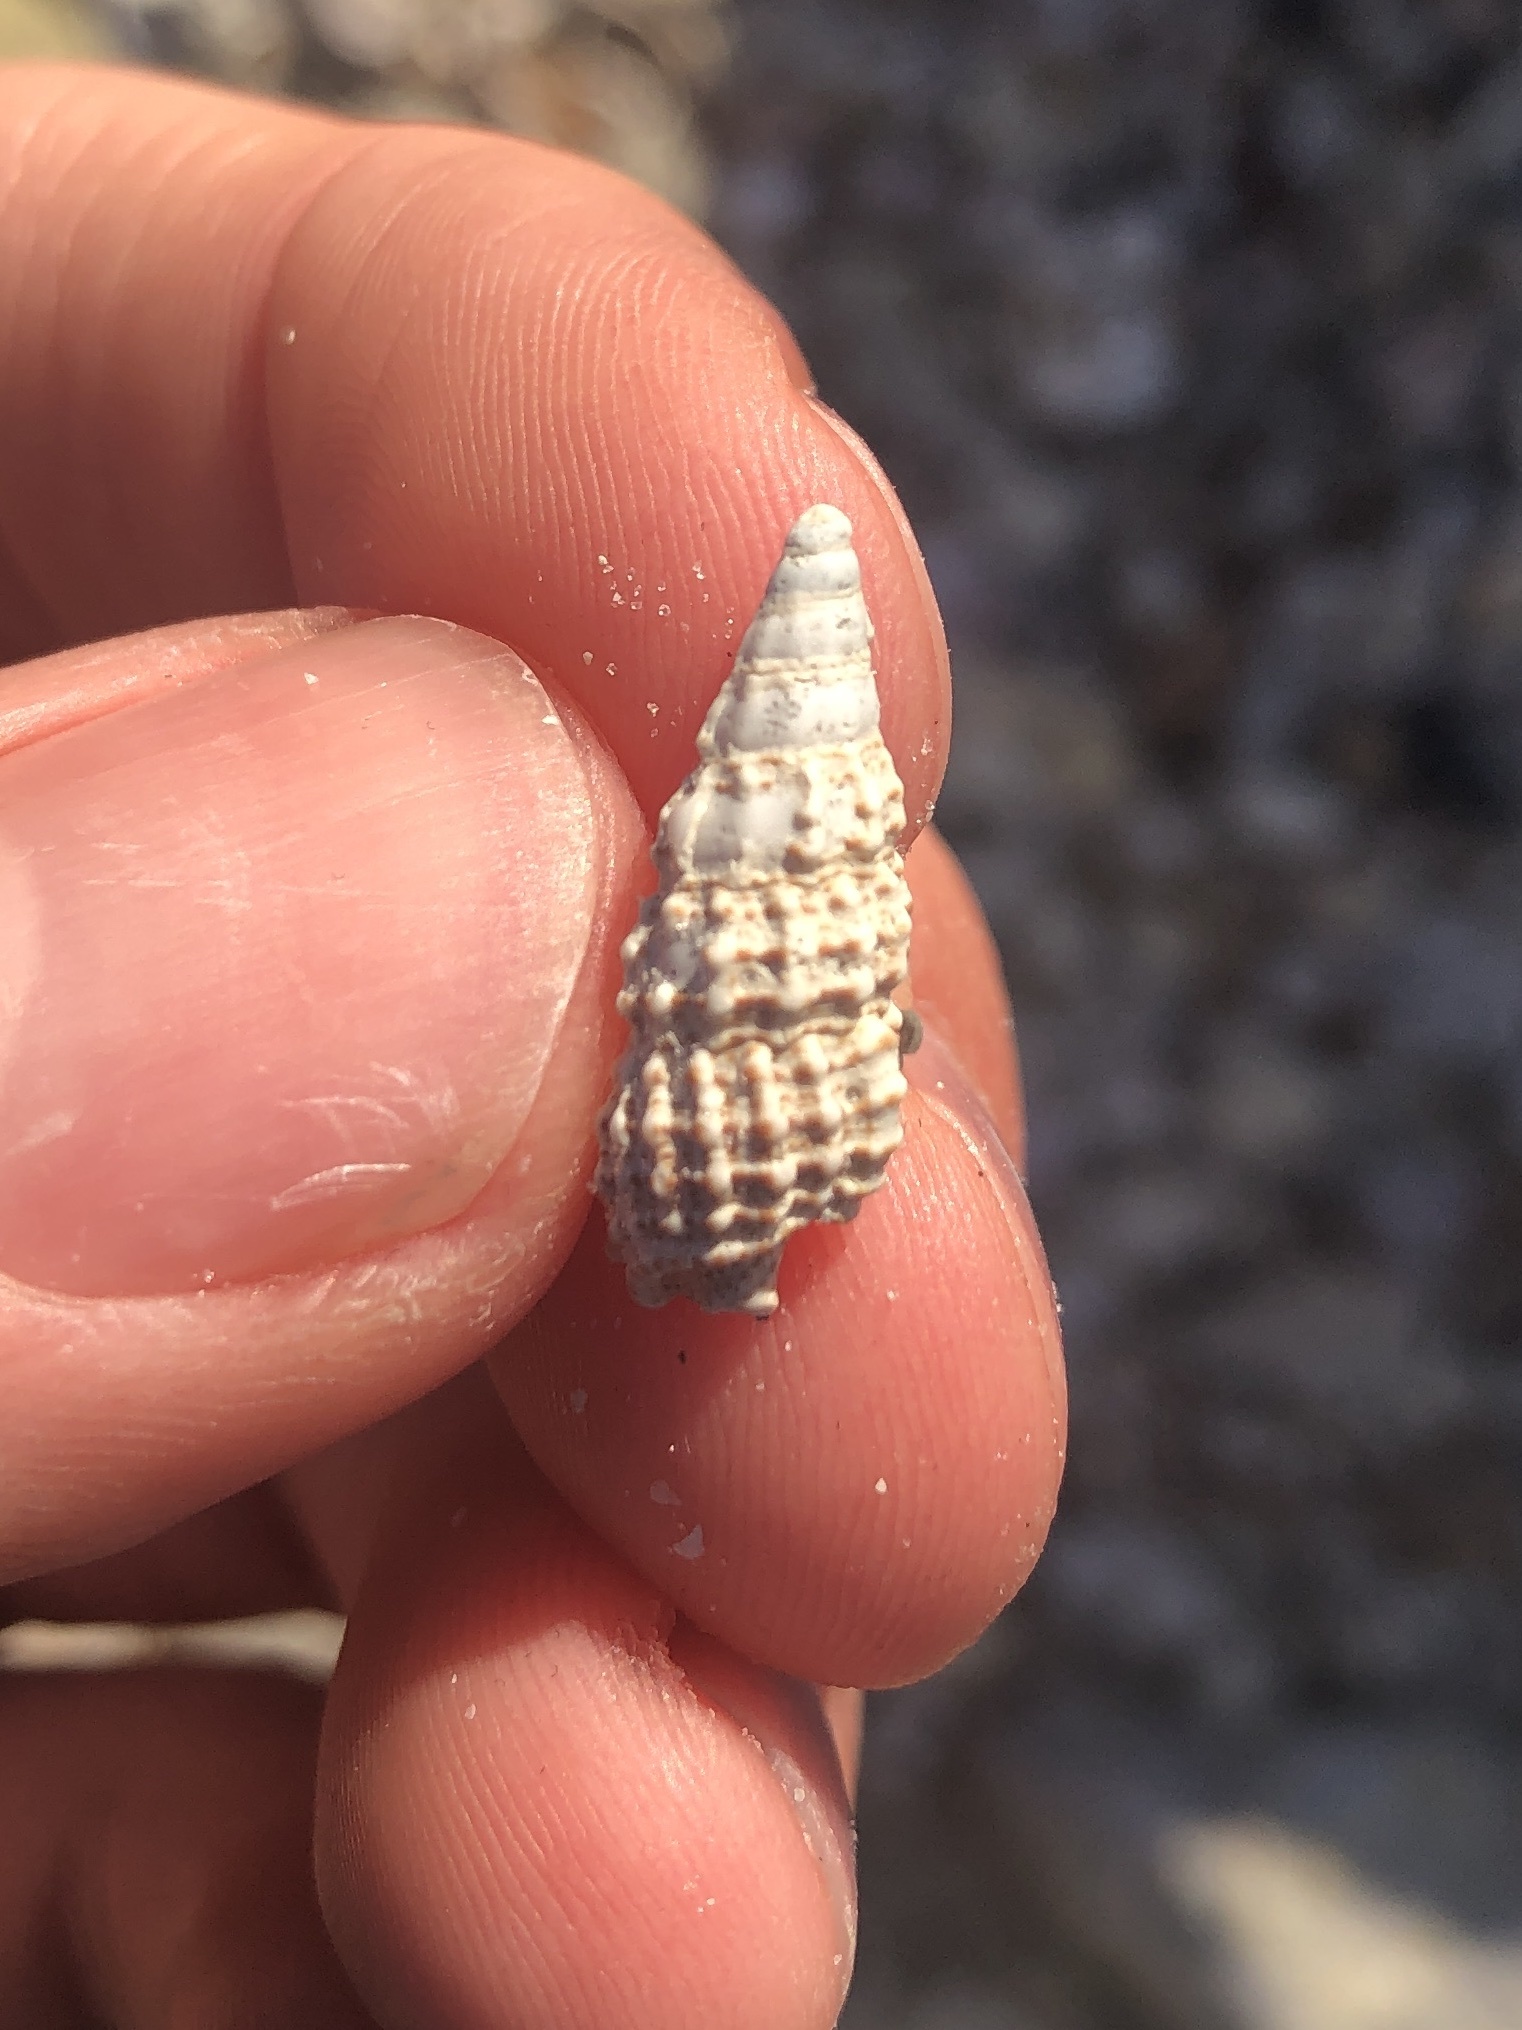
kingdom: Animalia
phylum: Mollusca
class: Gastropoda
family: Cerithiidae
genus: Cerithium
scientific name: Cerithium muscarum
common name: Fly-specked cerith
